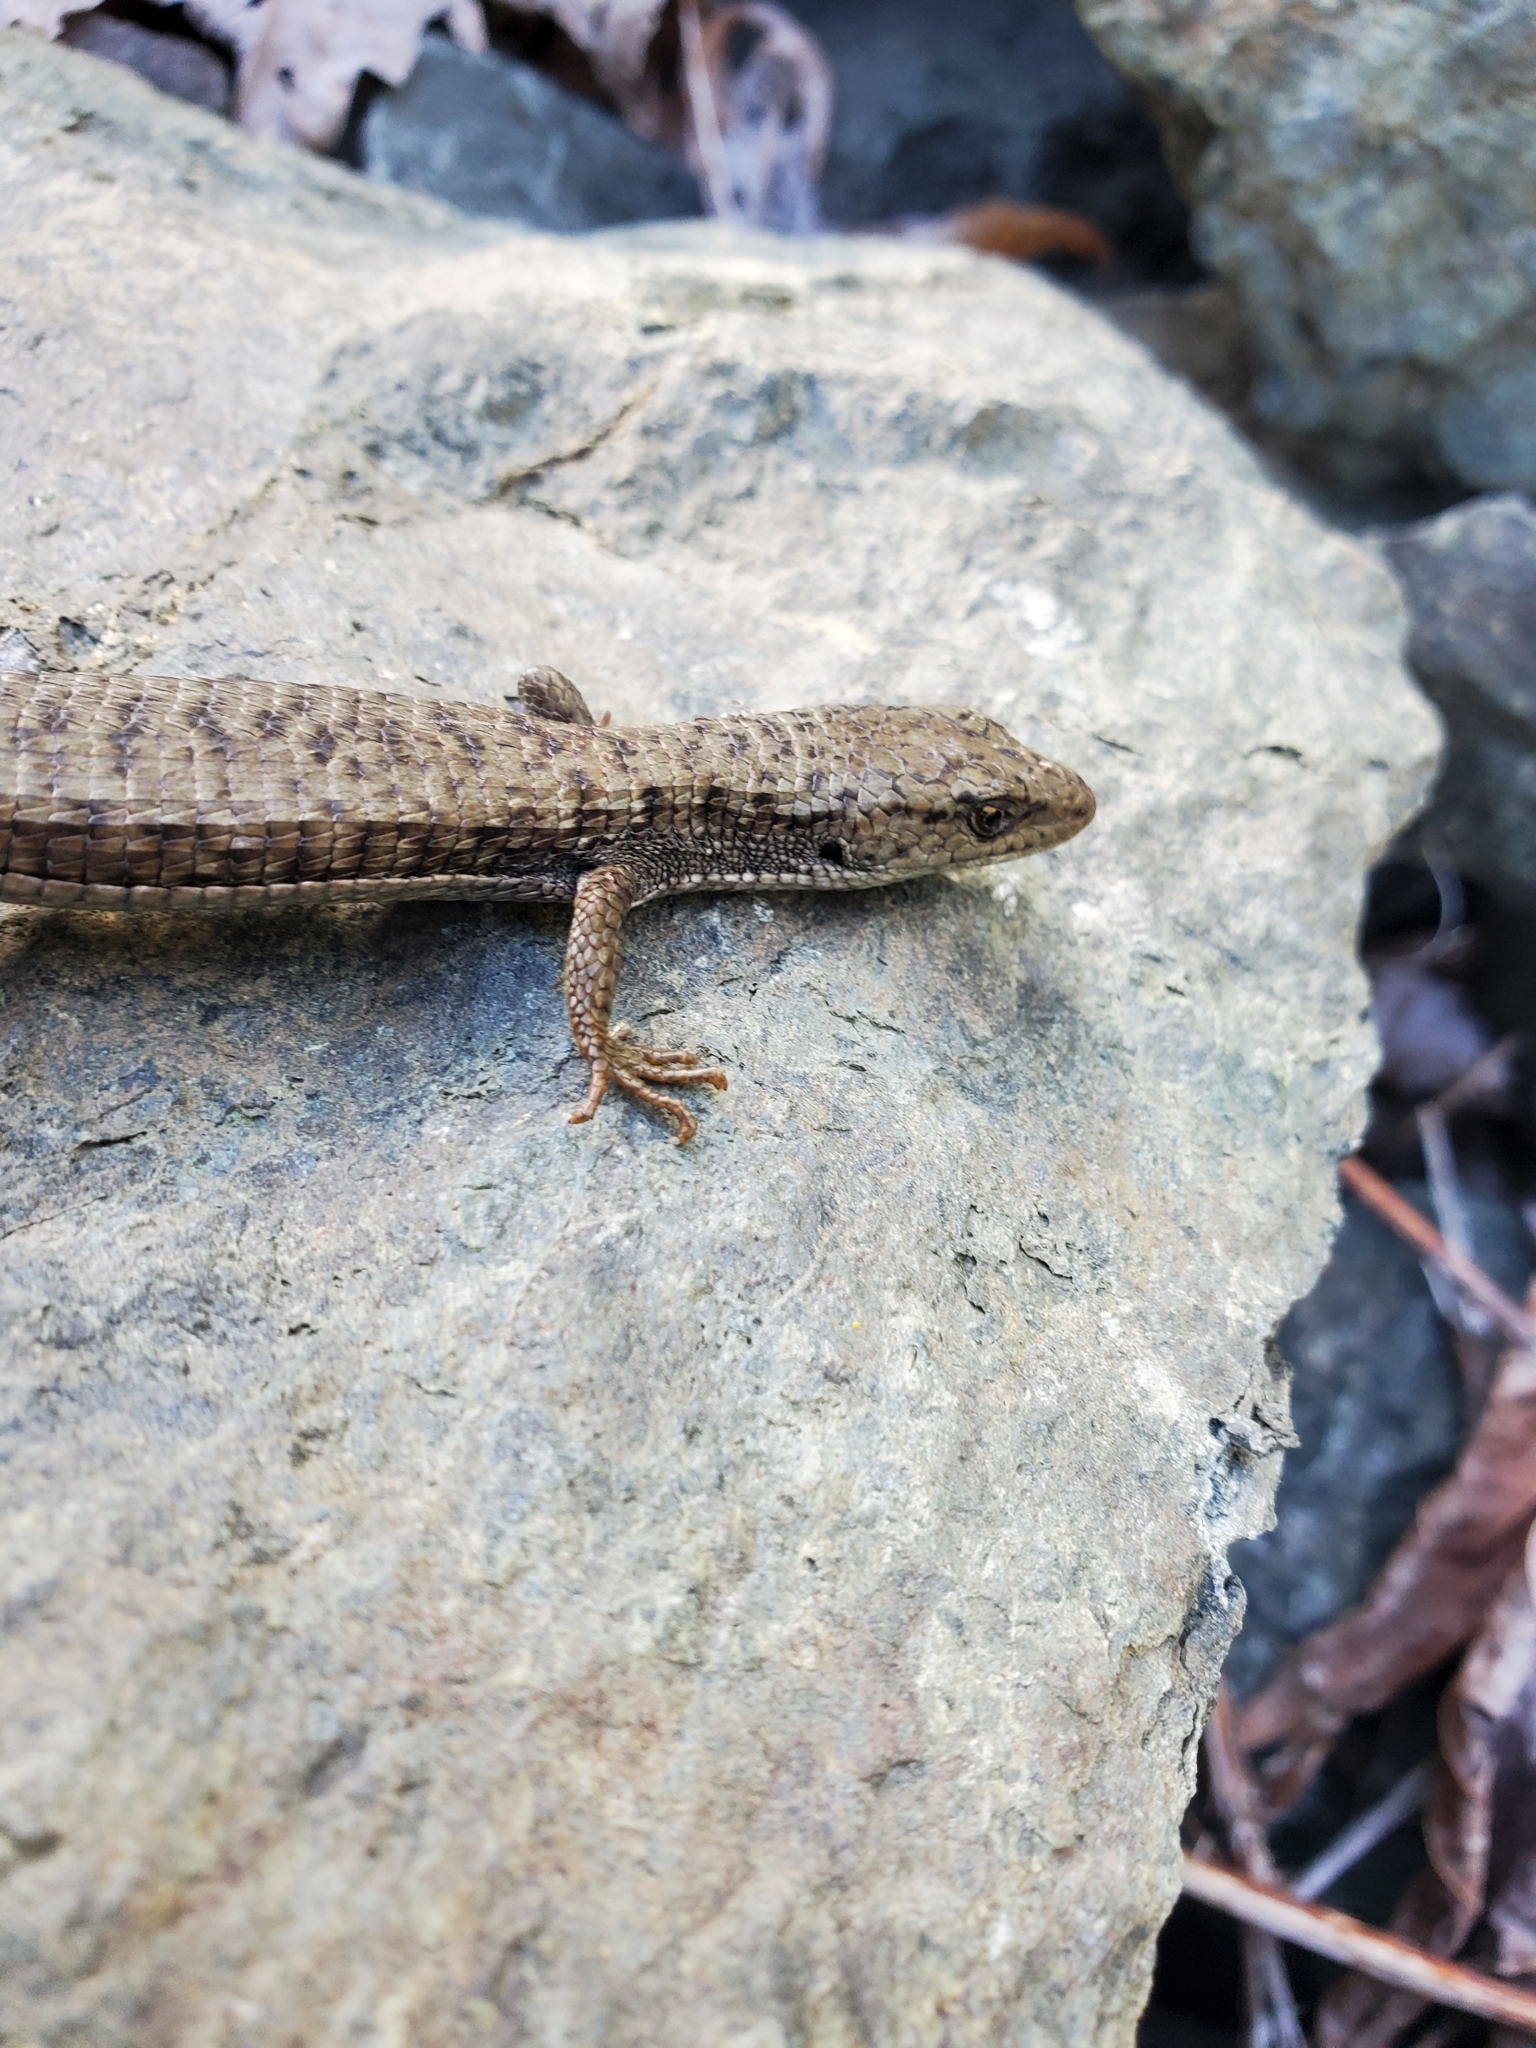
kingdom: Animalia
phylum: Chordata
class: Squamata
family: Anguidae
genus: Elgaria
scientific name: Elgaria coerulea
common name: Northern alligator lizard
